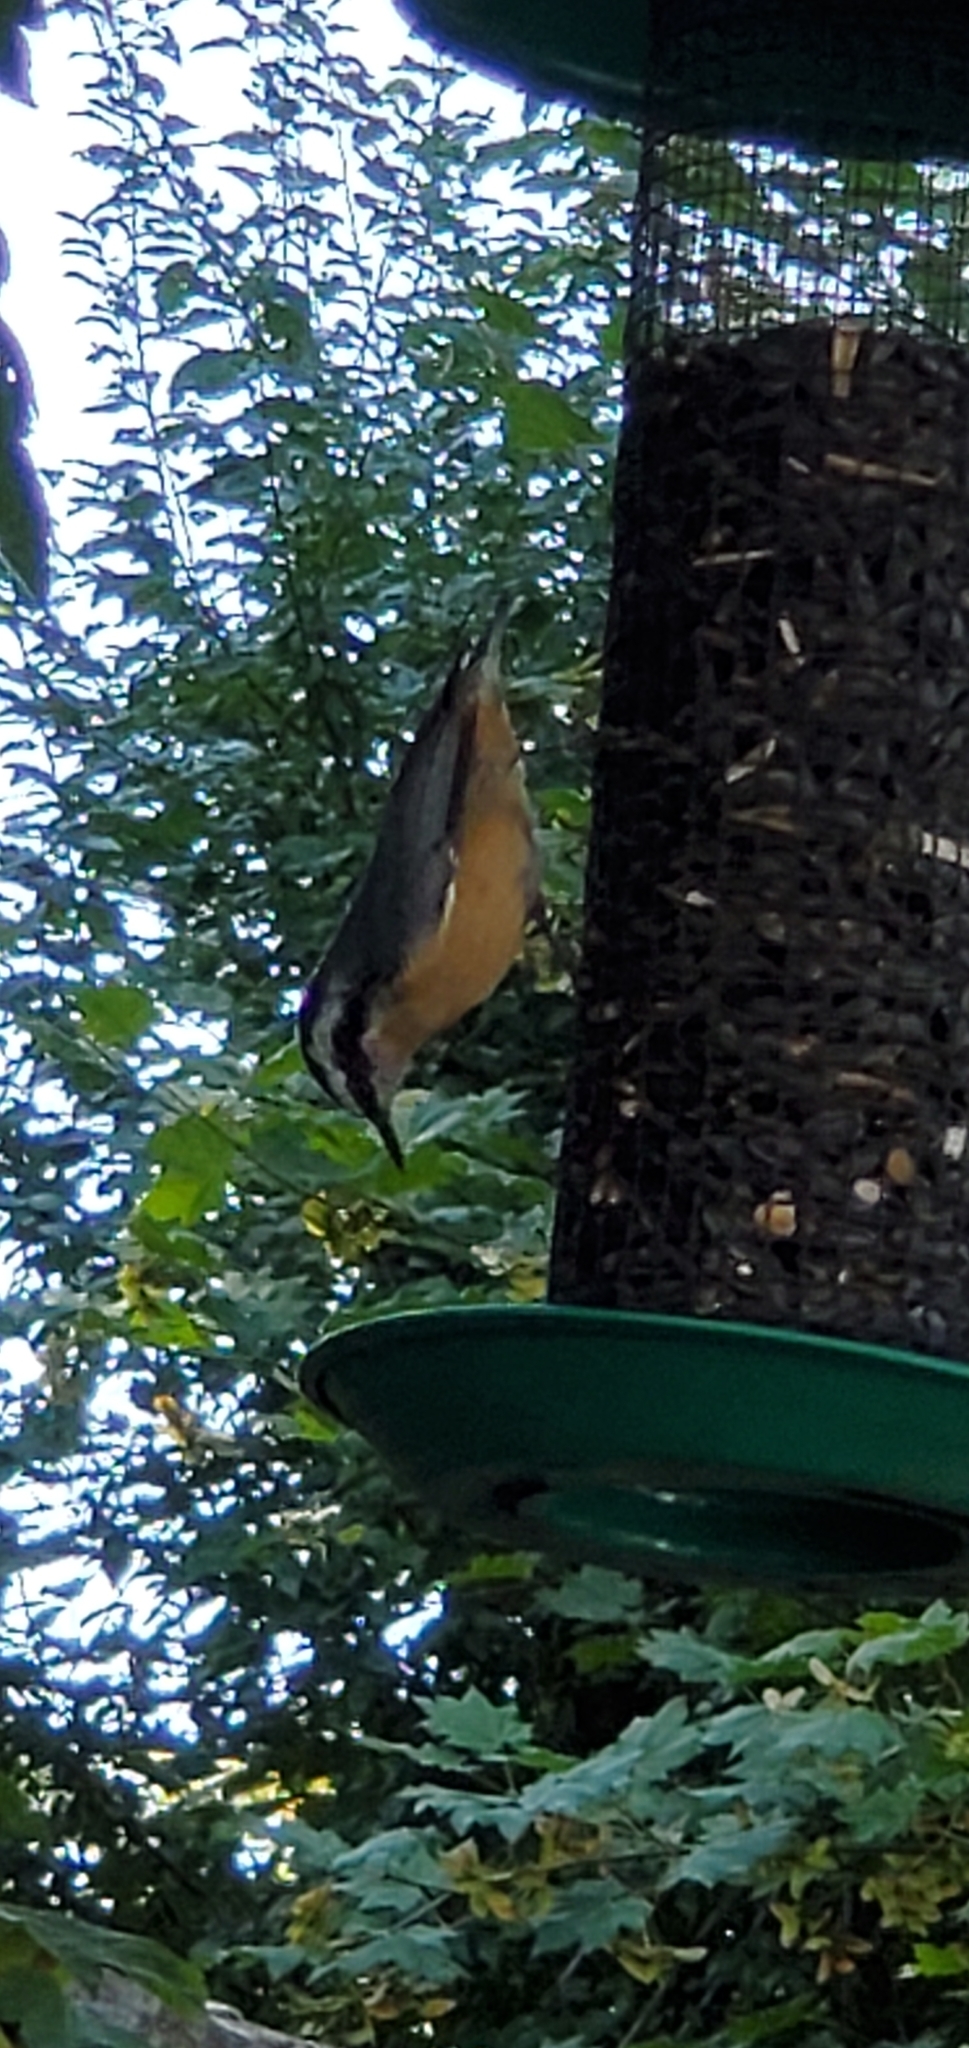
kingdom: Animalia
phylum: Chordata
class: Aves
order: Passeriformes
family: Sittidae
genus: Sitta
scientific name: Sitta canadensis
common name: Red-breasted nuthatch
